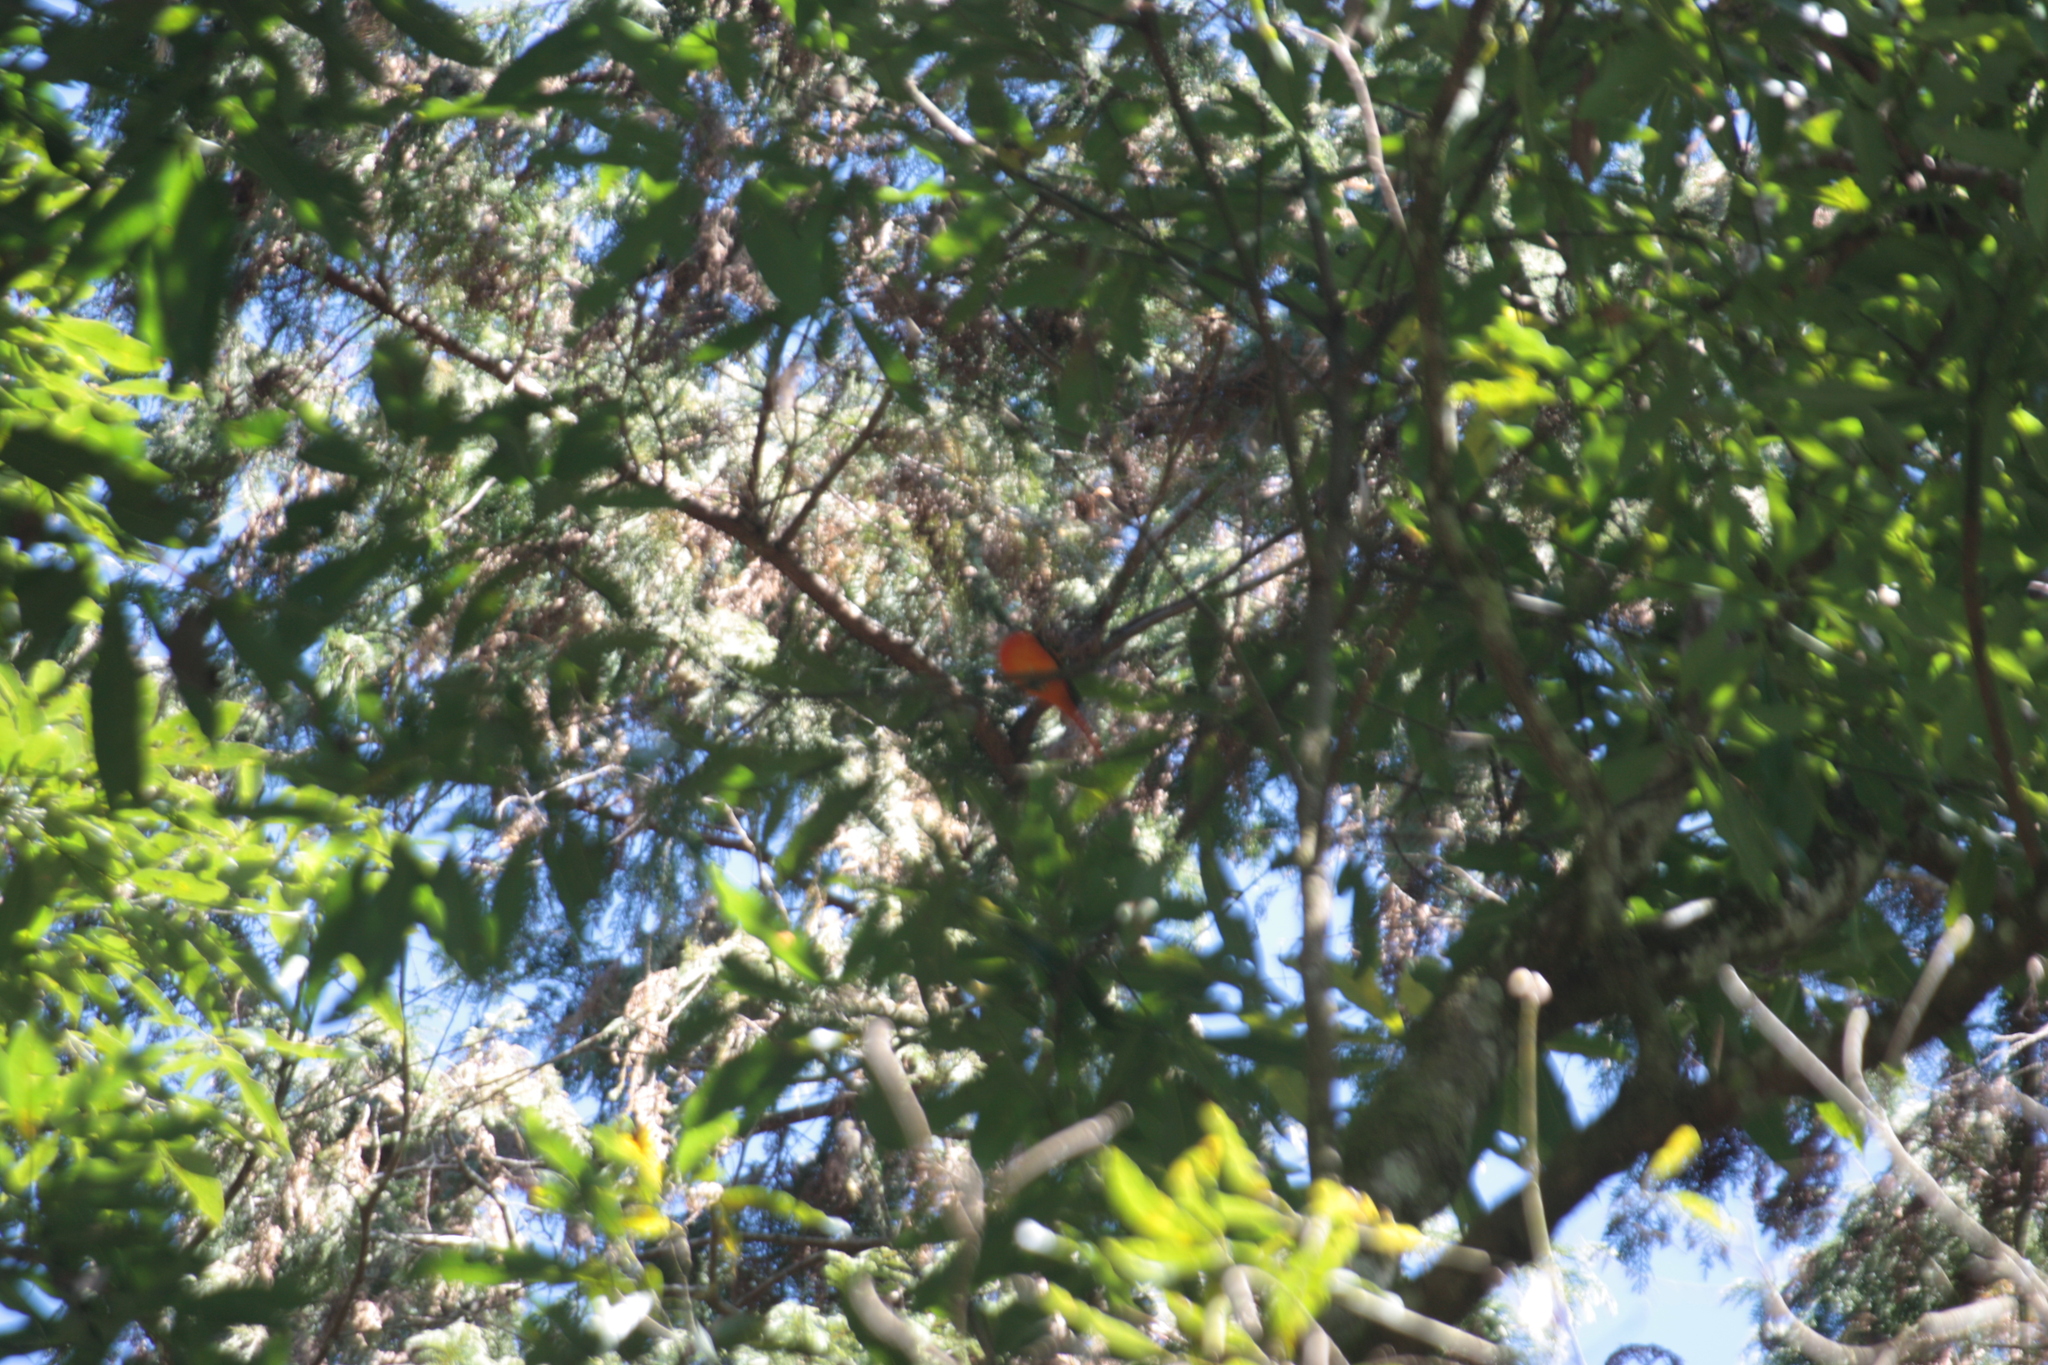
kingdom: Animalia
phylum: Chordata
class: Aves
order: Passeriformes
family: Campephagidae
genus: Pericrocotus
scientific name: Pericrocotus solaris
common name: Grey-chinned minivet
